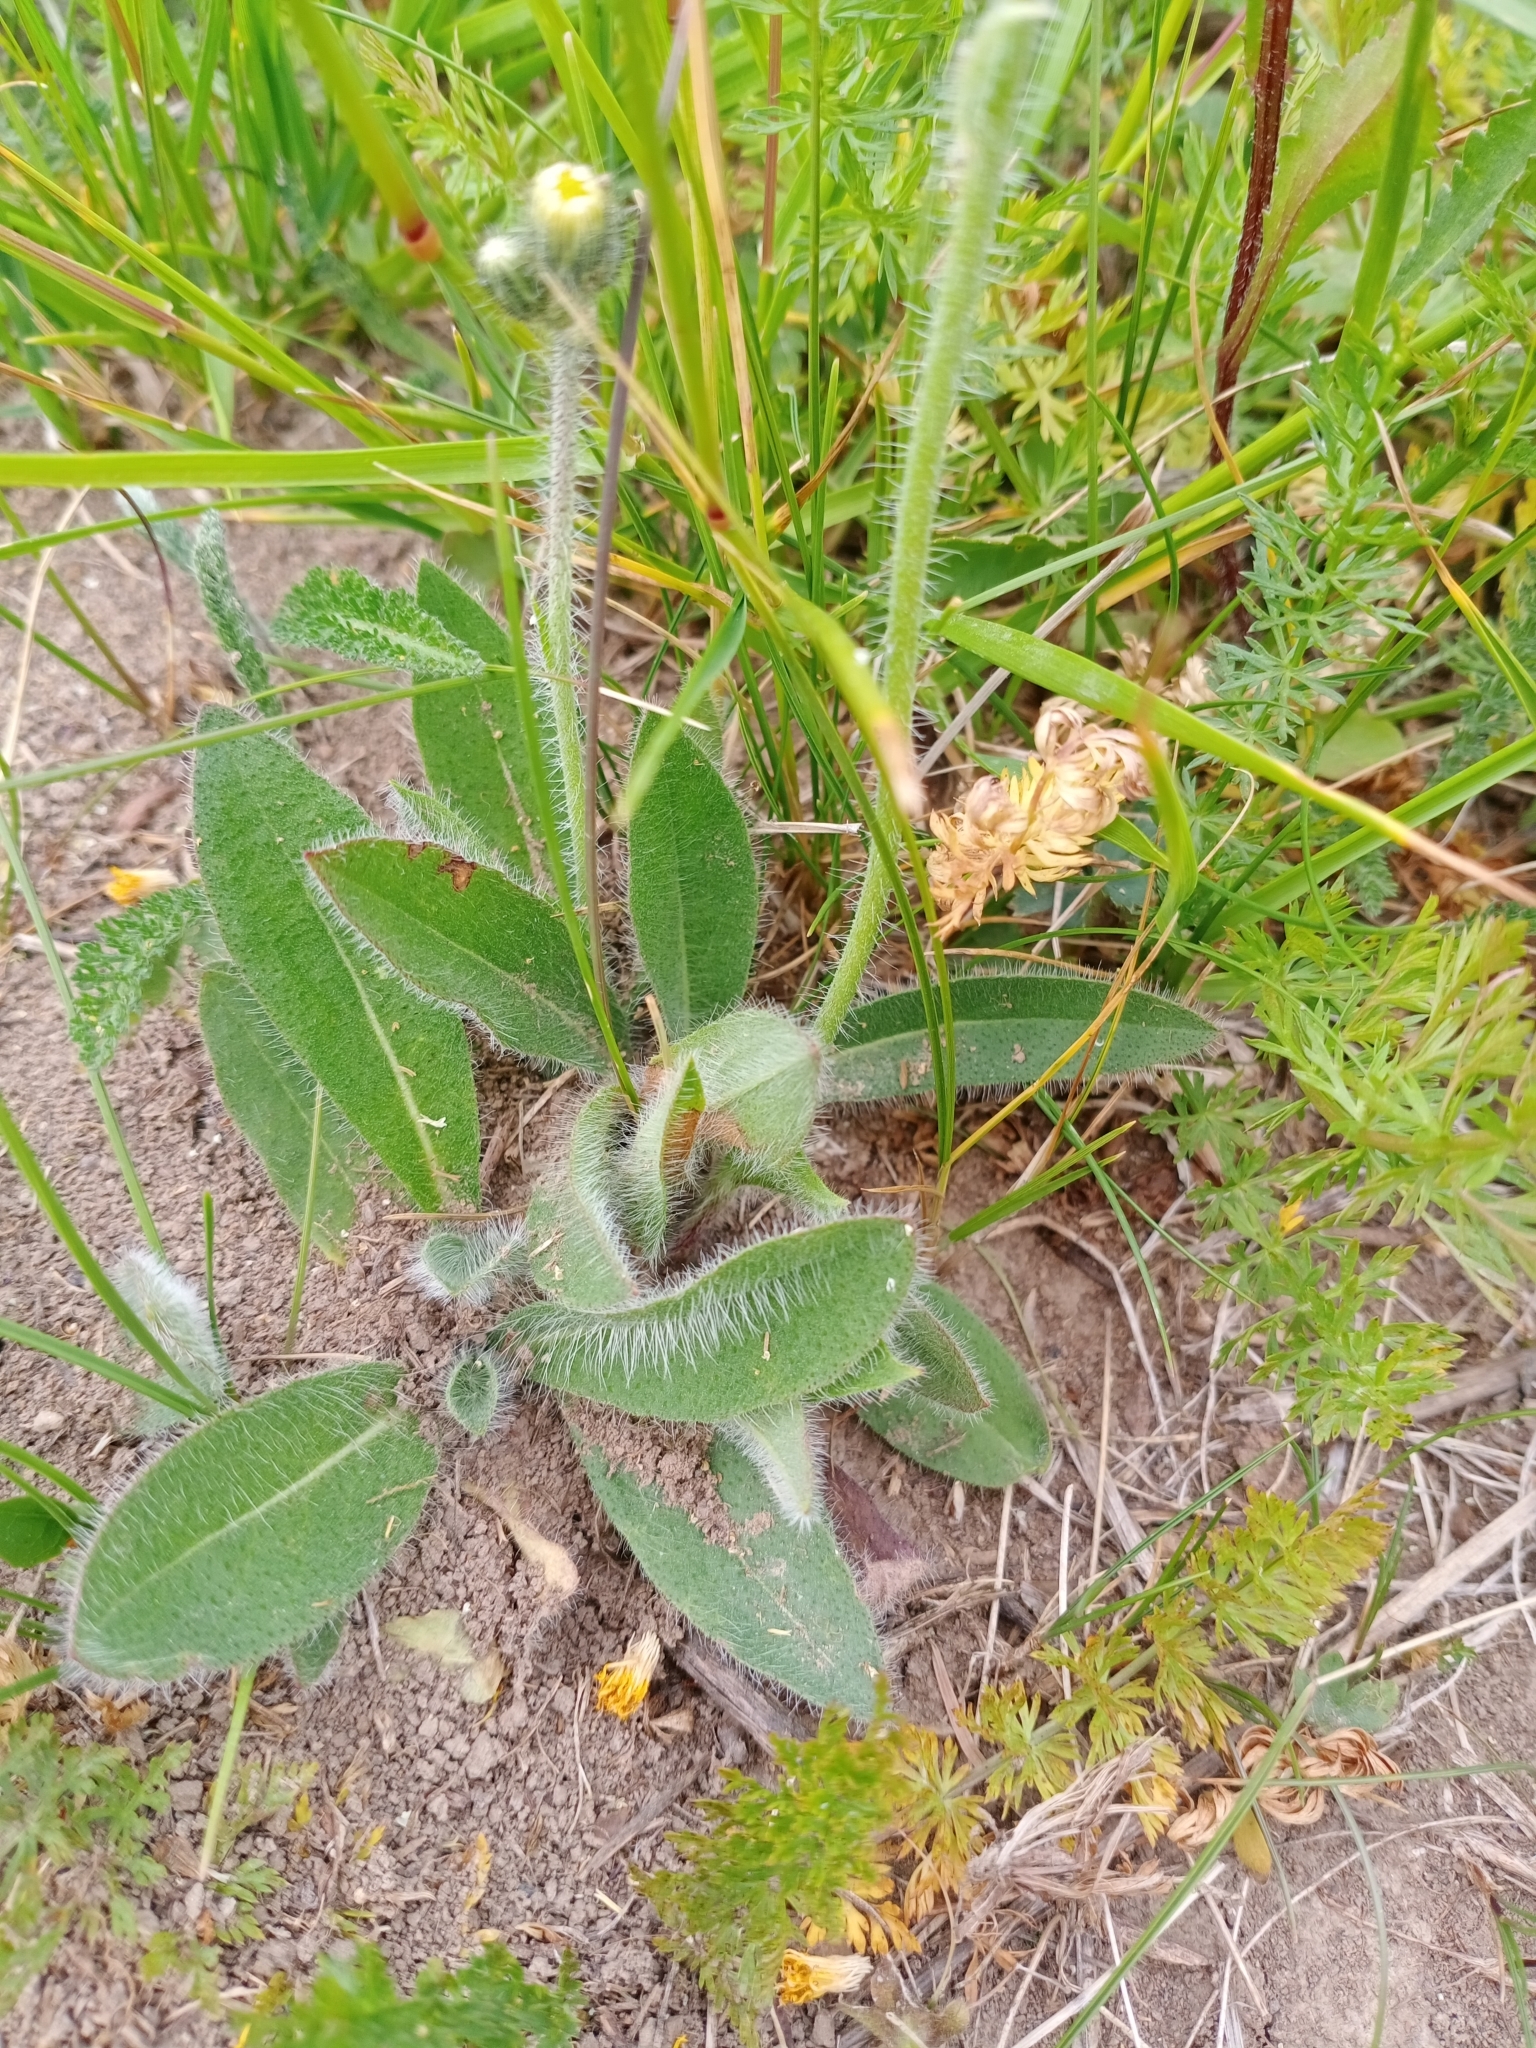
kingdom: Plantae
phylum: Tracheophyta
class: Magnoliopsida
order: Asterales
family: Asteraceae
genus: Pilosella
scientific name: Pilosella officinarum
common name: Mouse-ear hawkweed
